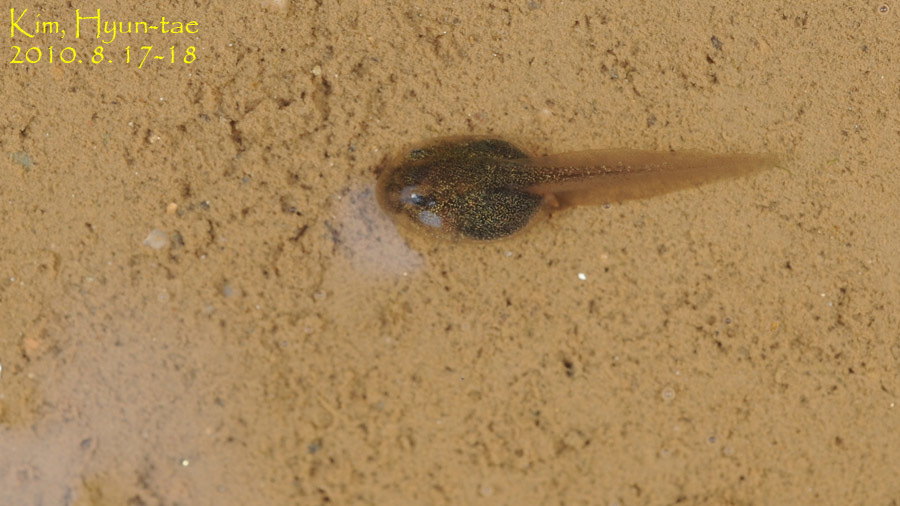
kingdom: Animalia
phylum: Chordata
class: Amphibia
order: Anura
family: Bombinatoridae
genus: Bombina
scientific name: Bombina orientalis
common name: Oriental firebelly toad
